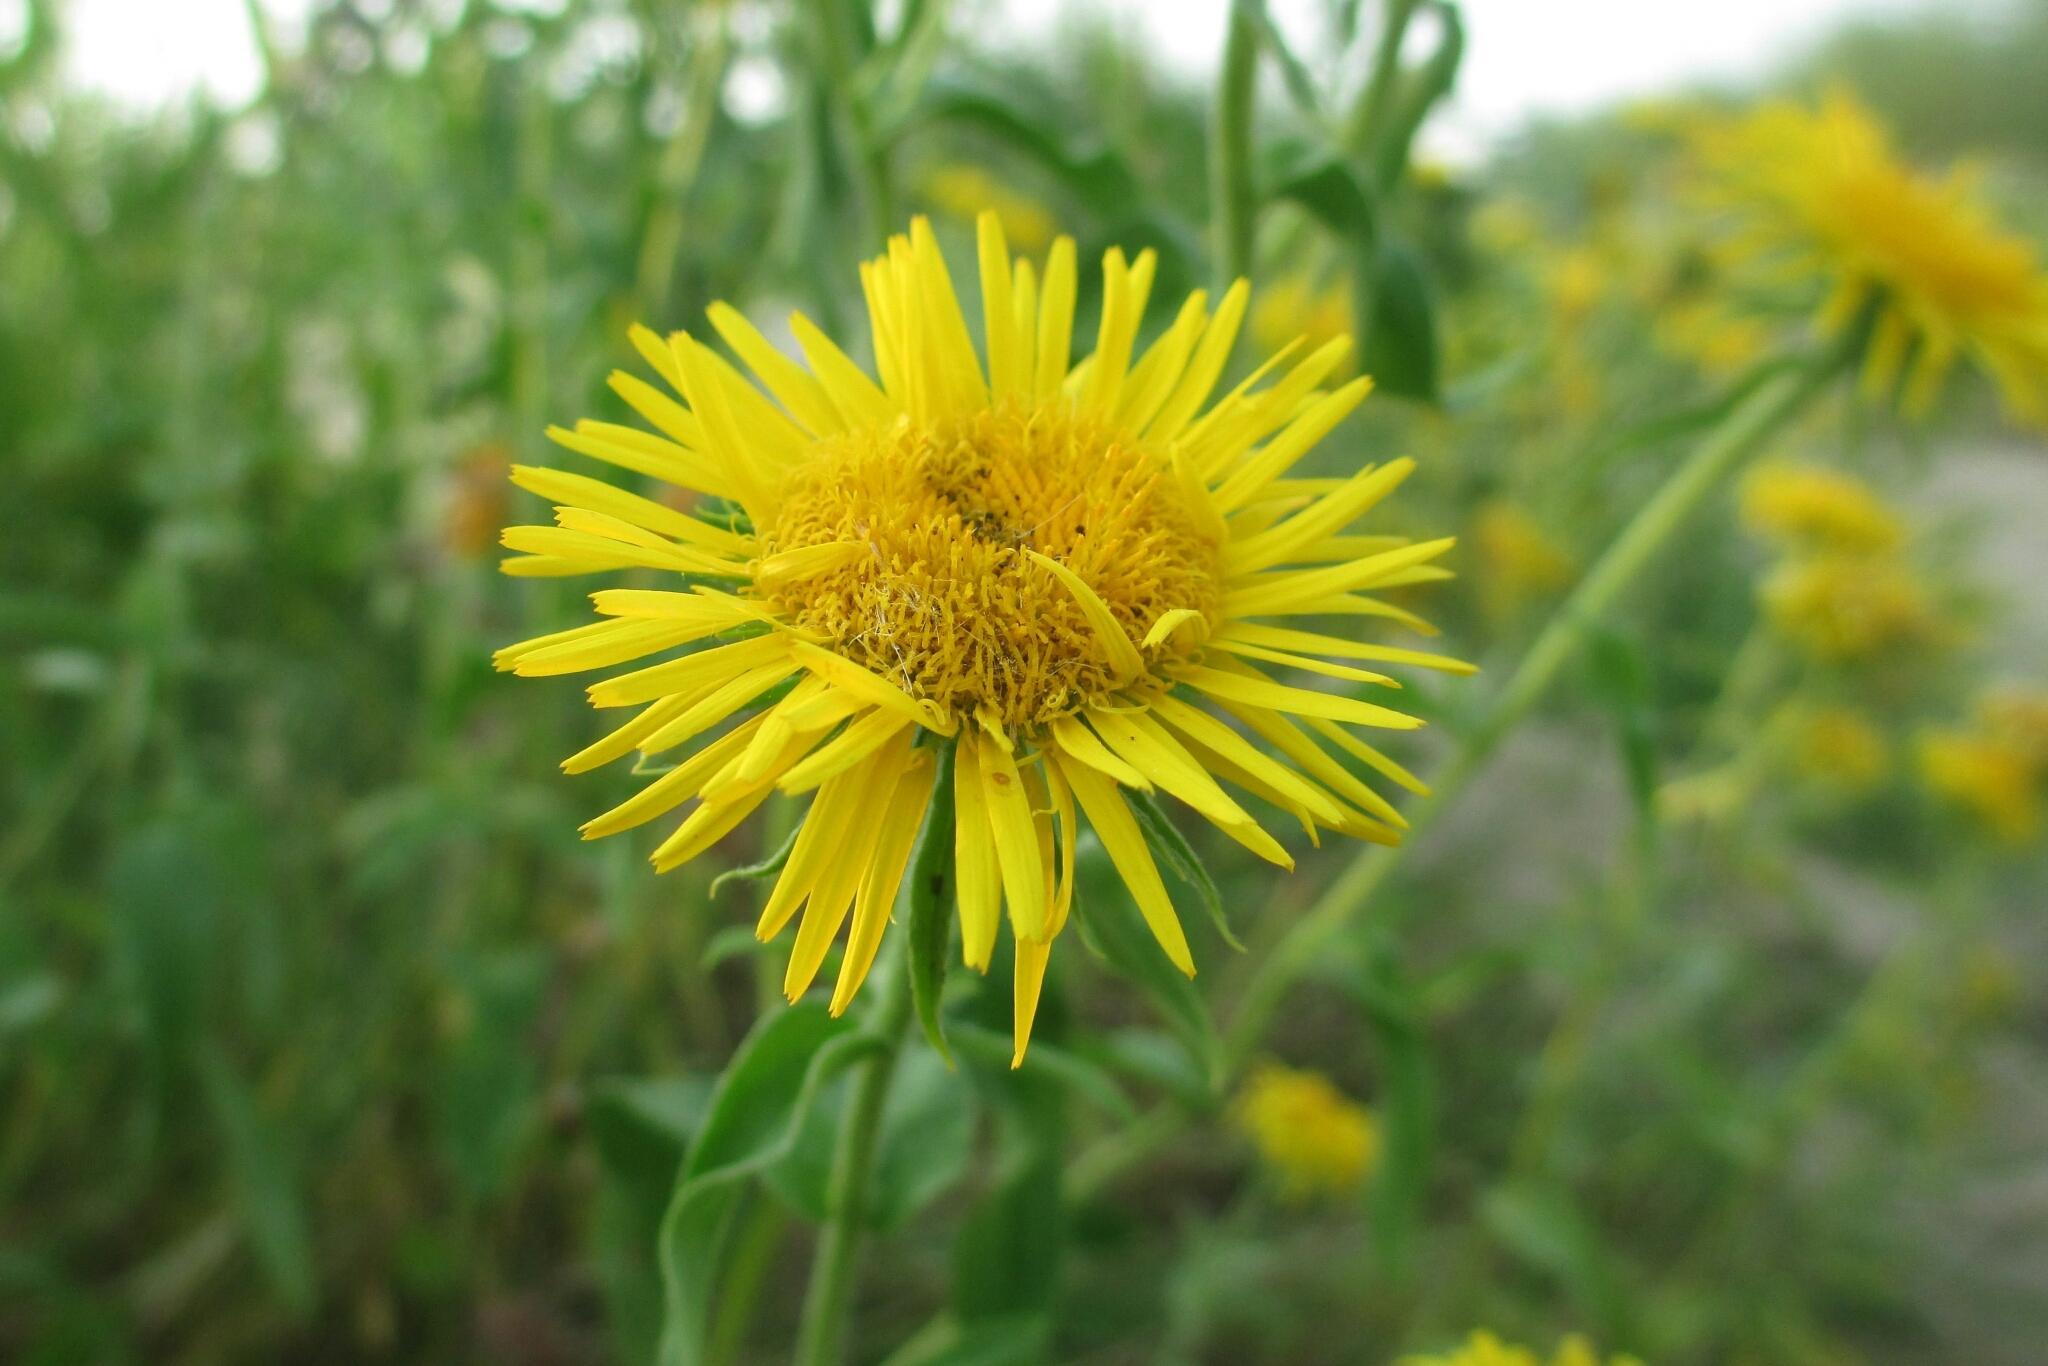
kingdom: Plantae
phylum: Tracheophyta
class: Magnoliopsida
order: Asterales
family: Asteraceae
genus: Pentanema
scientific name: Pentanema britannicum
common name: British elecampane
